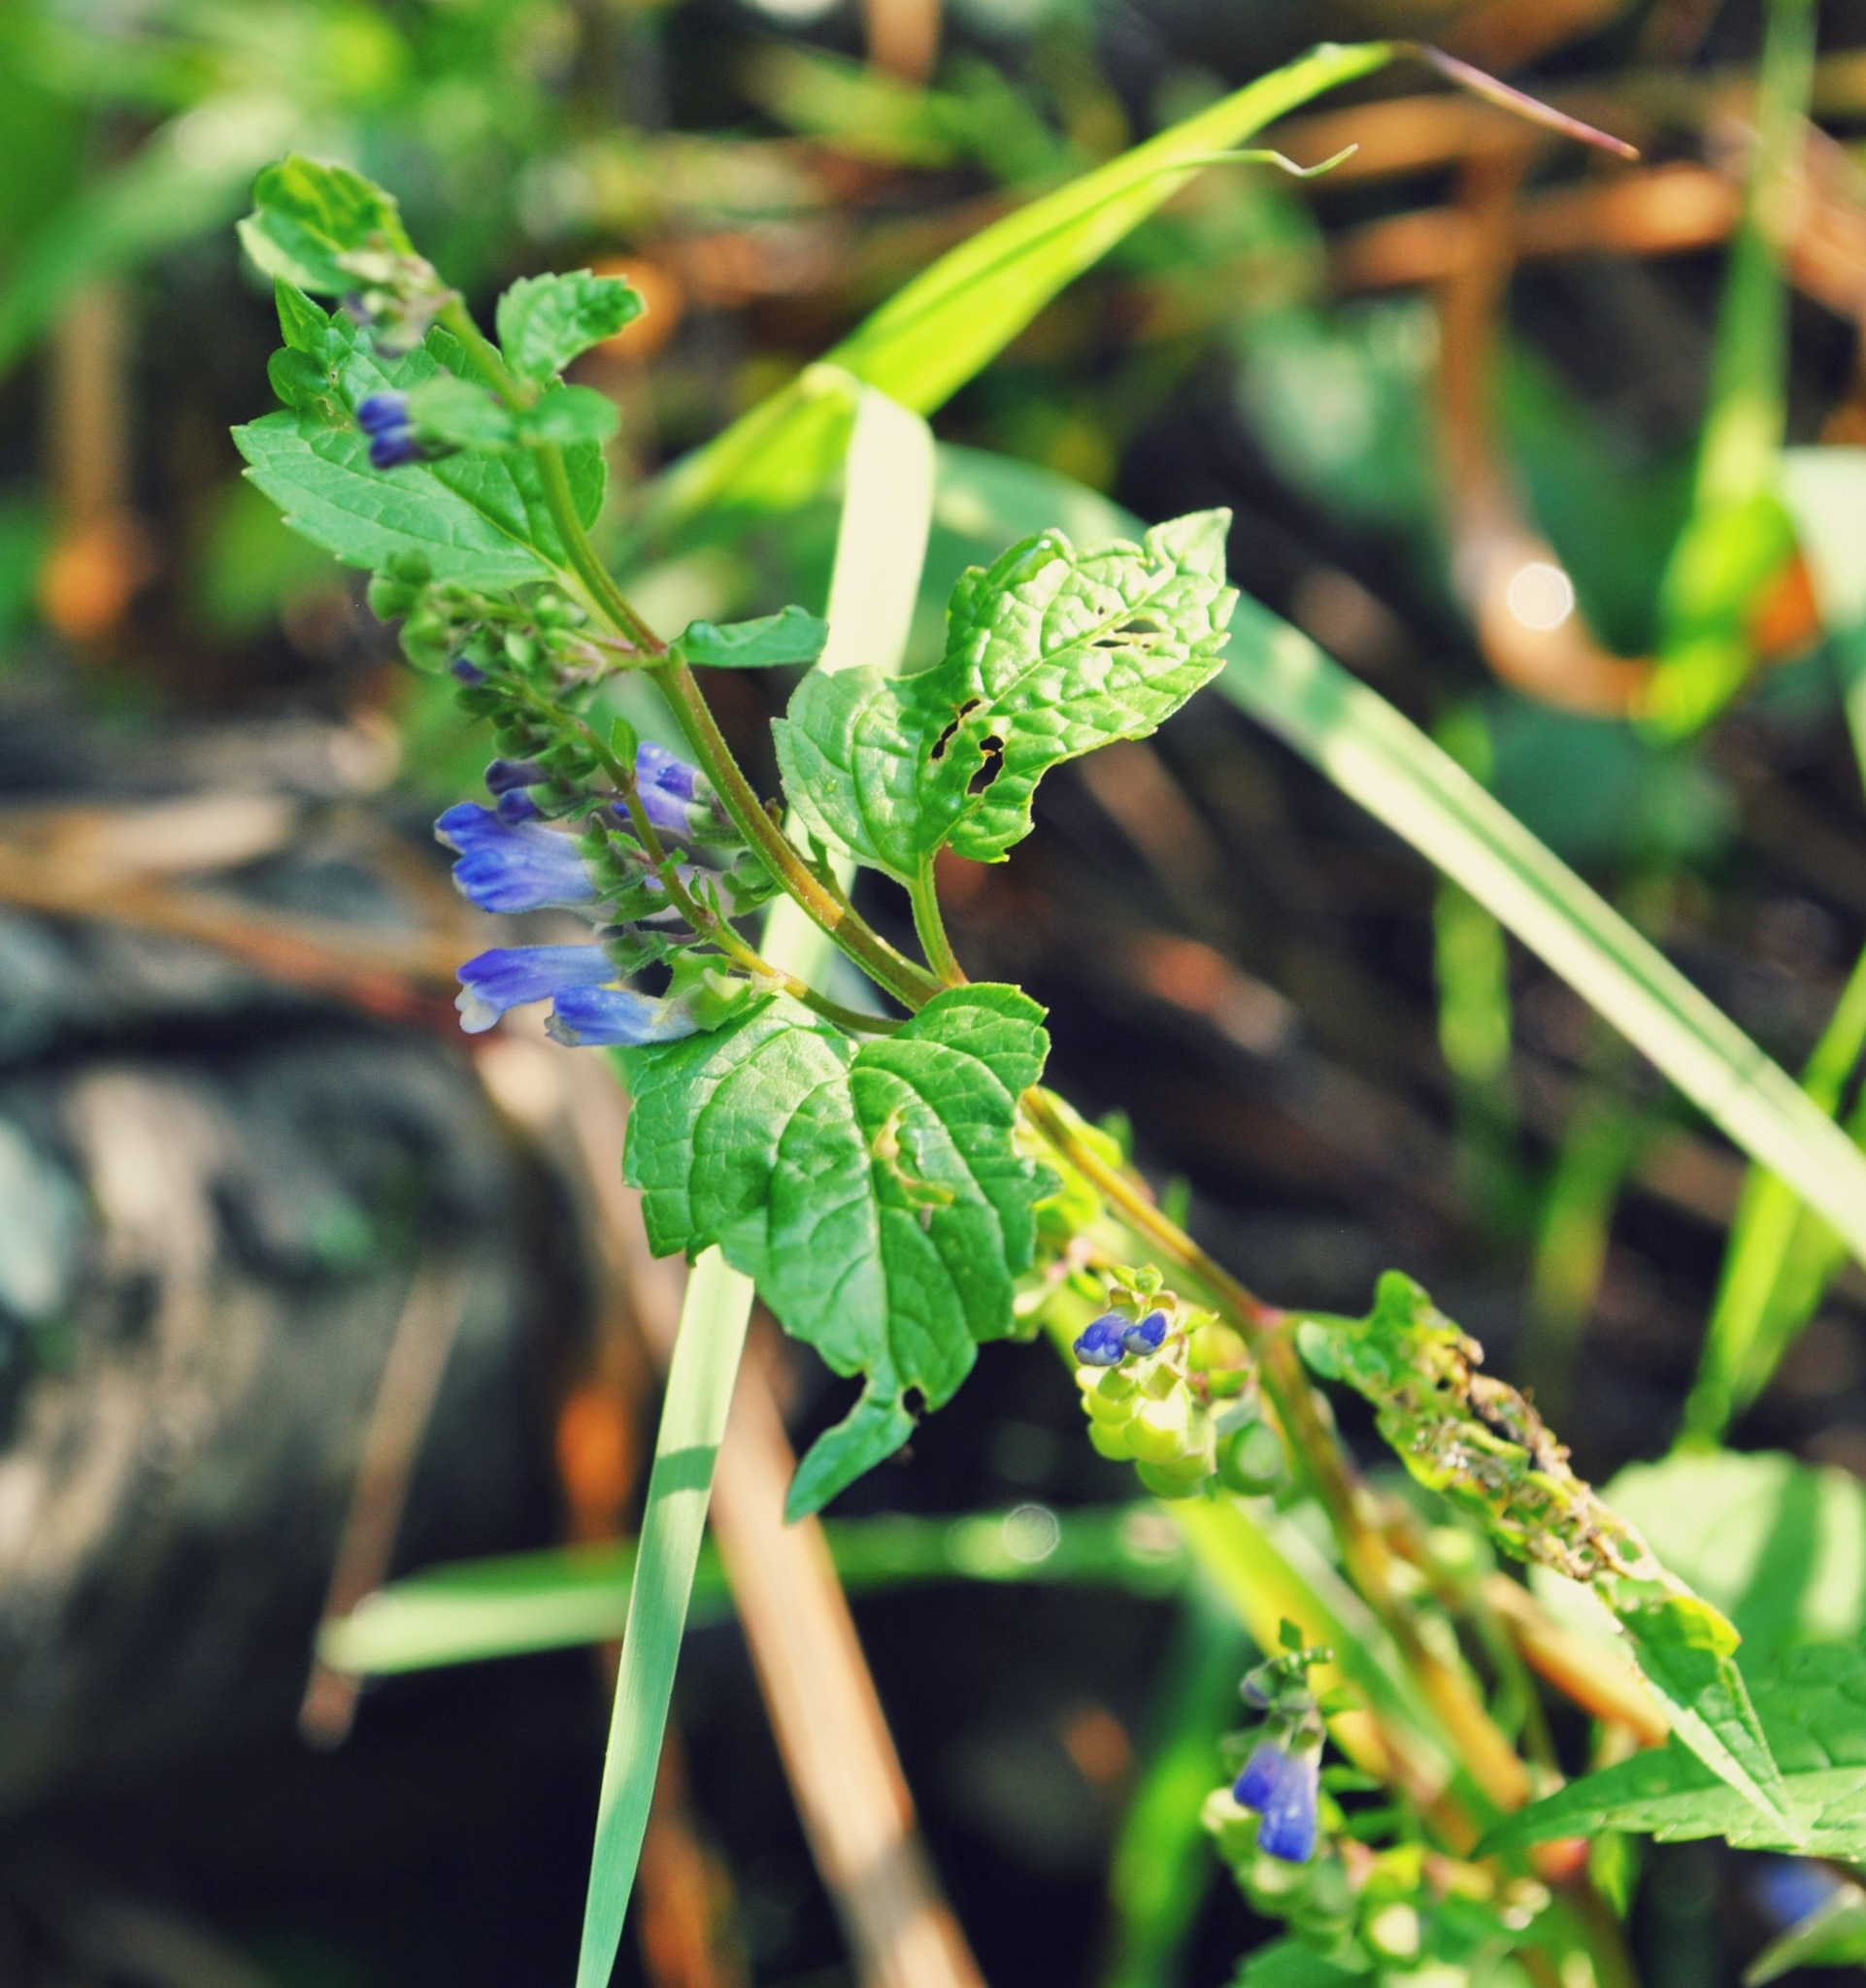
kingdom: Plantae
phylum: Tracheophyta
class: Magnoliopsida
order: Lamiales
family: Lamiaceae
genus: Scutellaria
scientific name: Scutellaria lateriflora
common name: Blue skullcap
